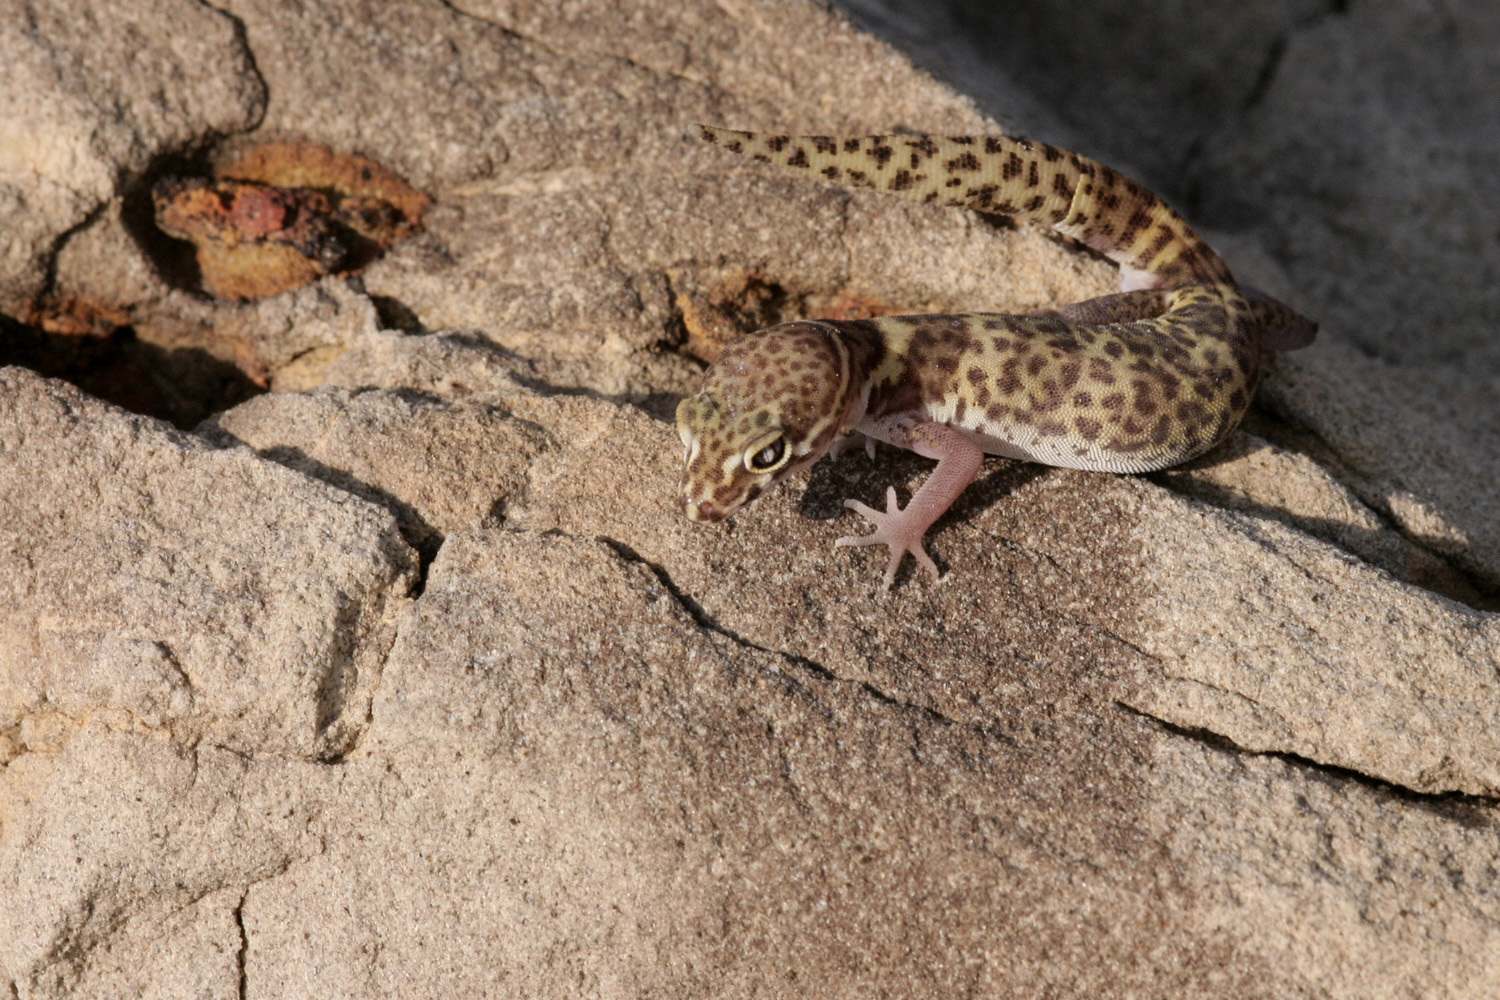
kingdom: Animalia
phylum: Chordata
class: Squamata
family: Eublepharidae
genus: Coleonyx
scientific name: Coleonyx brevis
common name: Texas banded gecko
